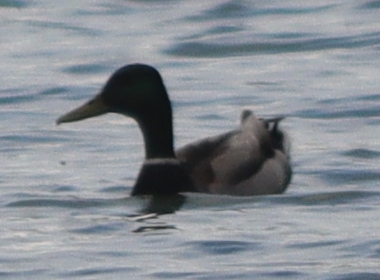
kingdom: Animalia
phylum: Chordata
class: Aves
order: Anseriformes
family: Anatidae
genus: Anas
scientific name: Anas platyrhynchos
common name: Mallard
